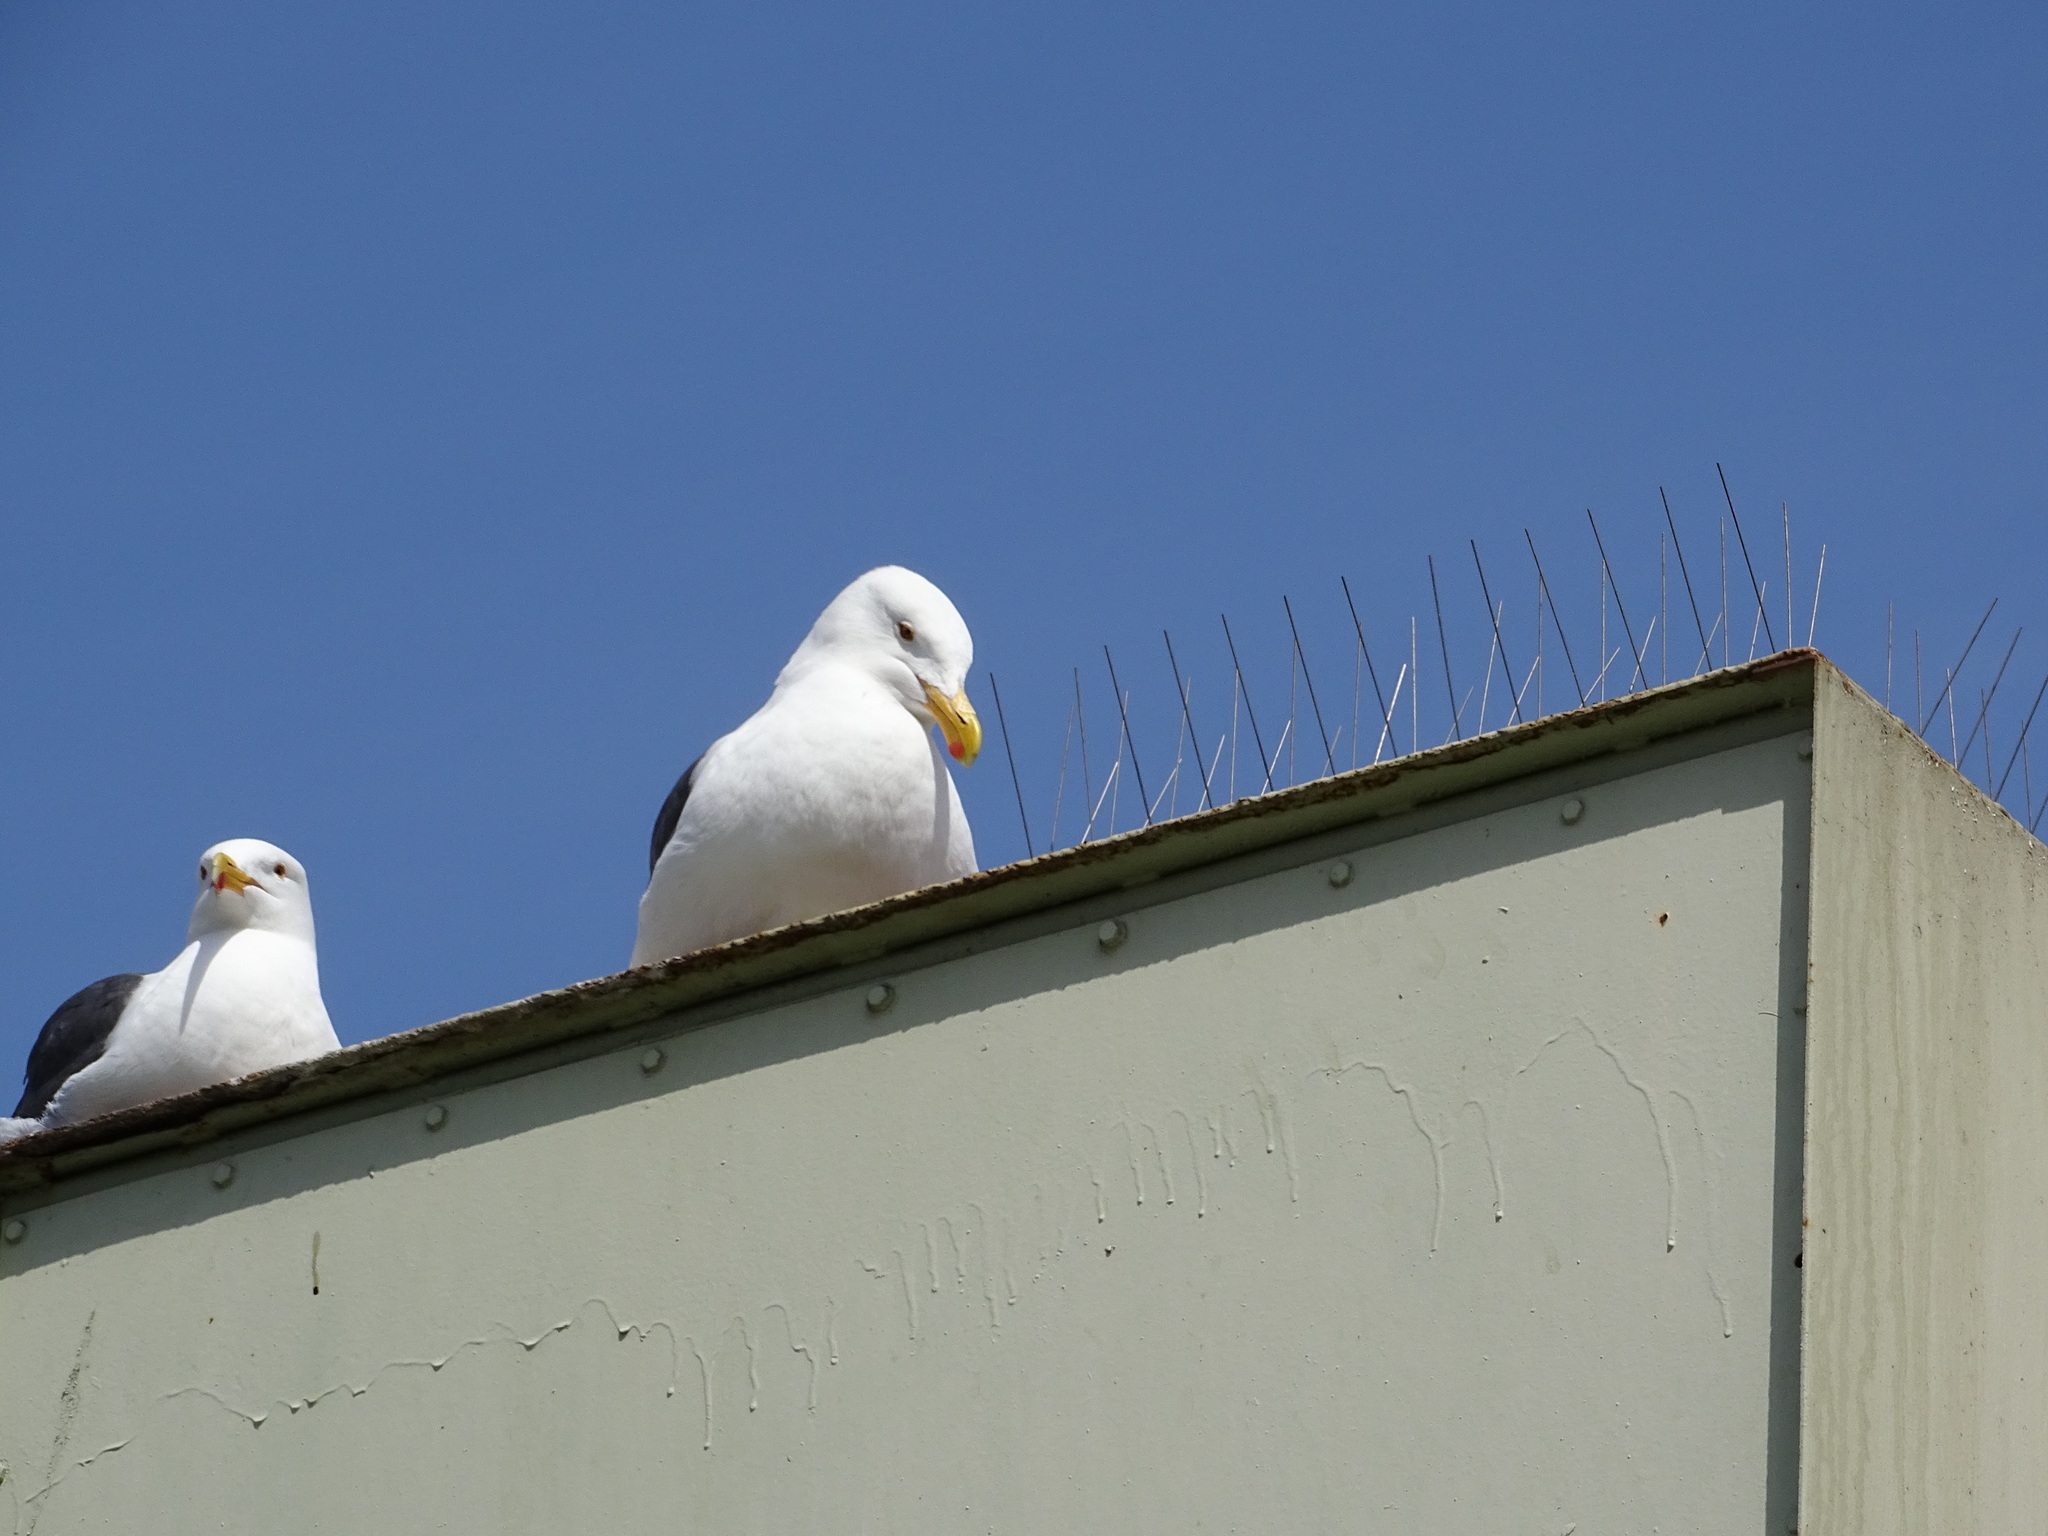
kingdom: Animalia
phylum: Chordata
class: Aves
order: Charadriiformes
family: Laridae
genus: Larus
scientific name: Larus occidentalis
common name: Western gull
